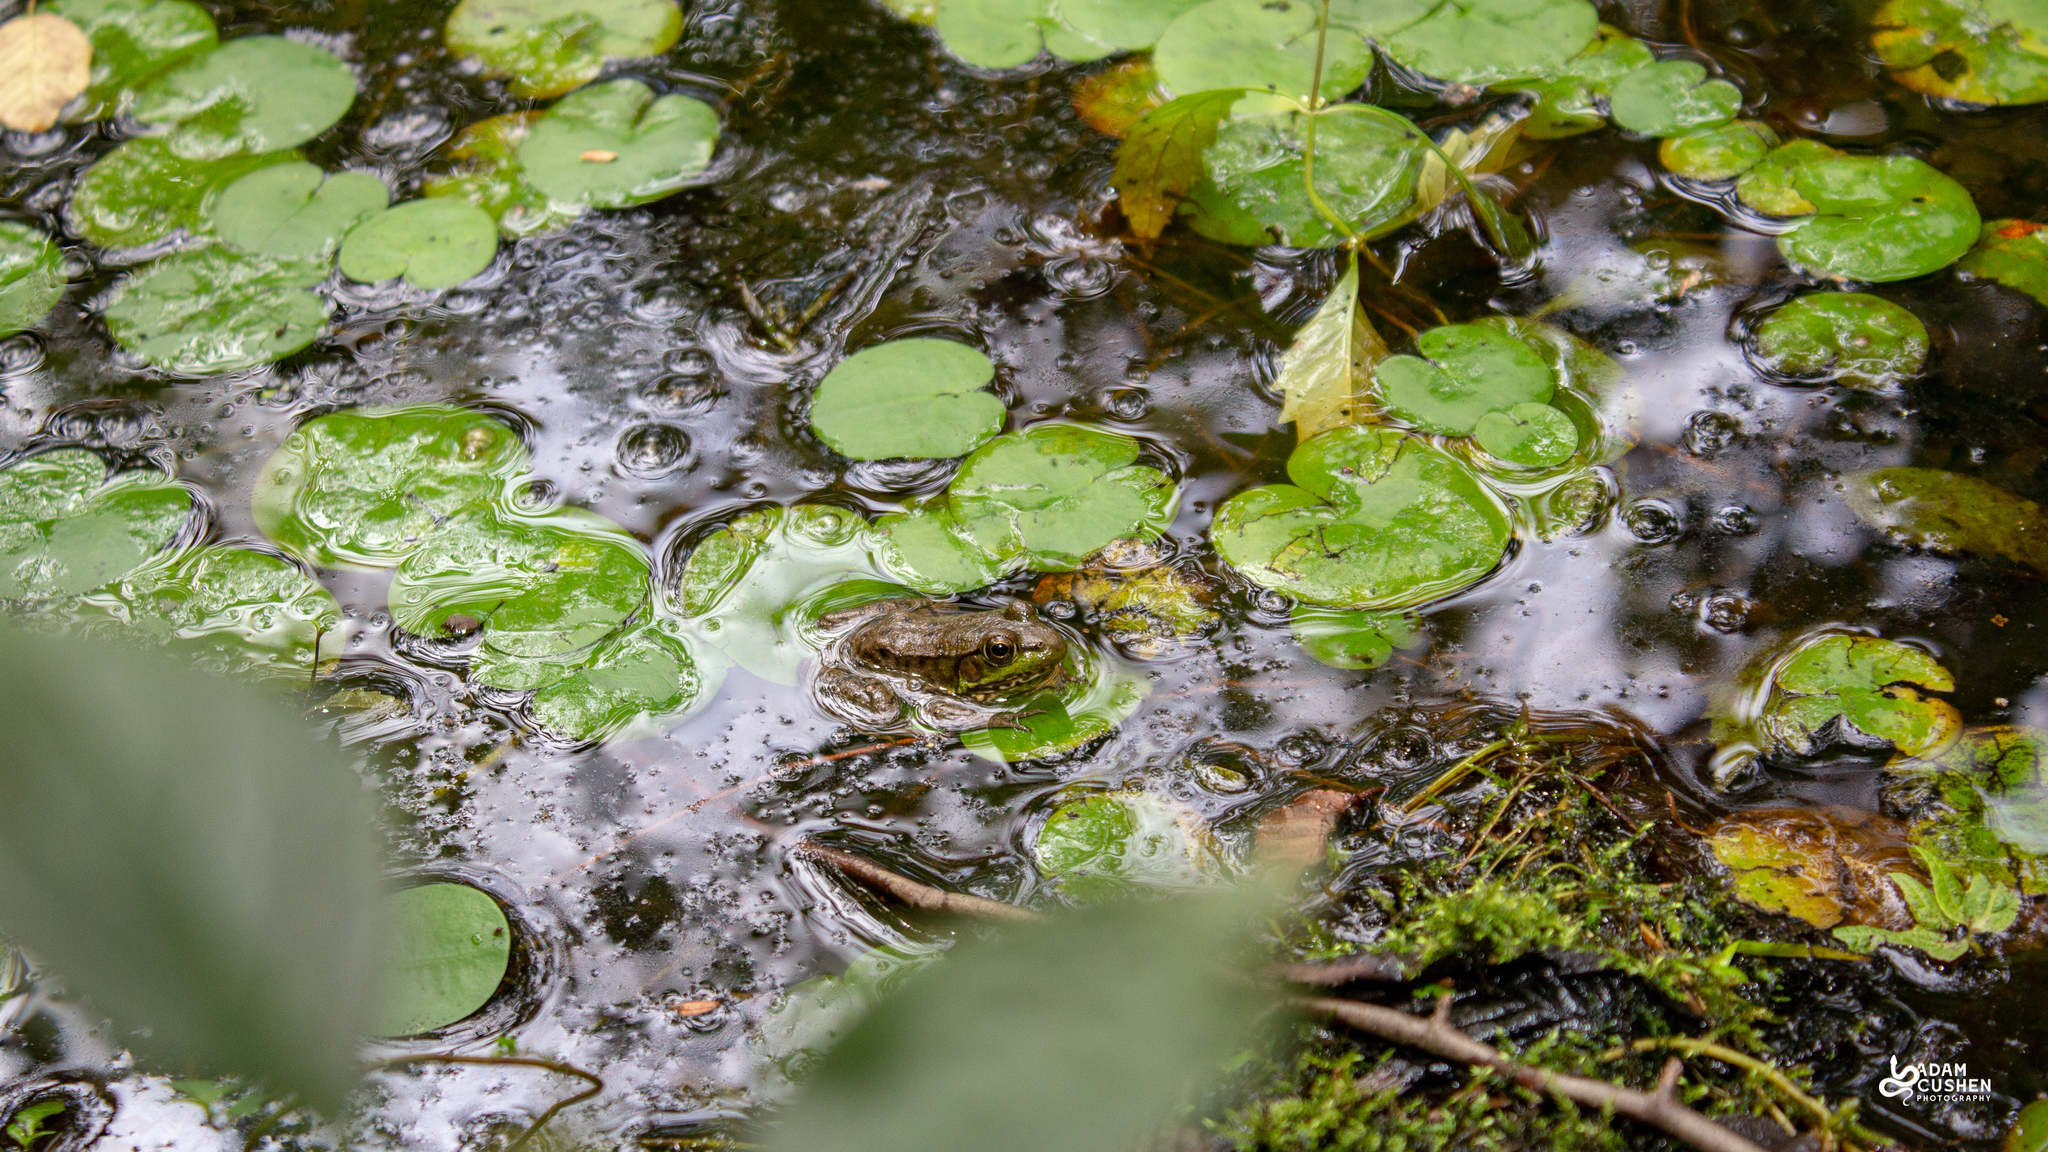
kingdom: Animalia
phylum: Chordata
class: Amphibia
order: Anura
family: Ranidae
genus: Lithobates
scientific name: Lithobates clamitans
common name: Green frog
